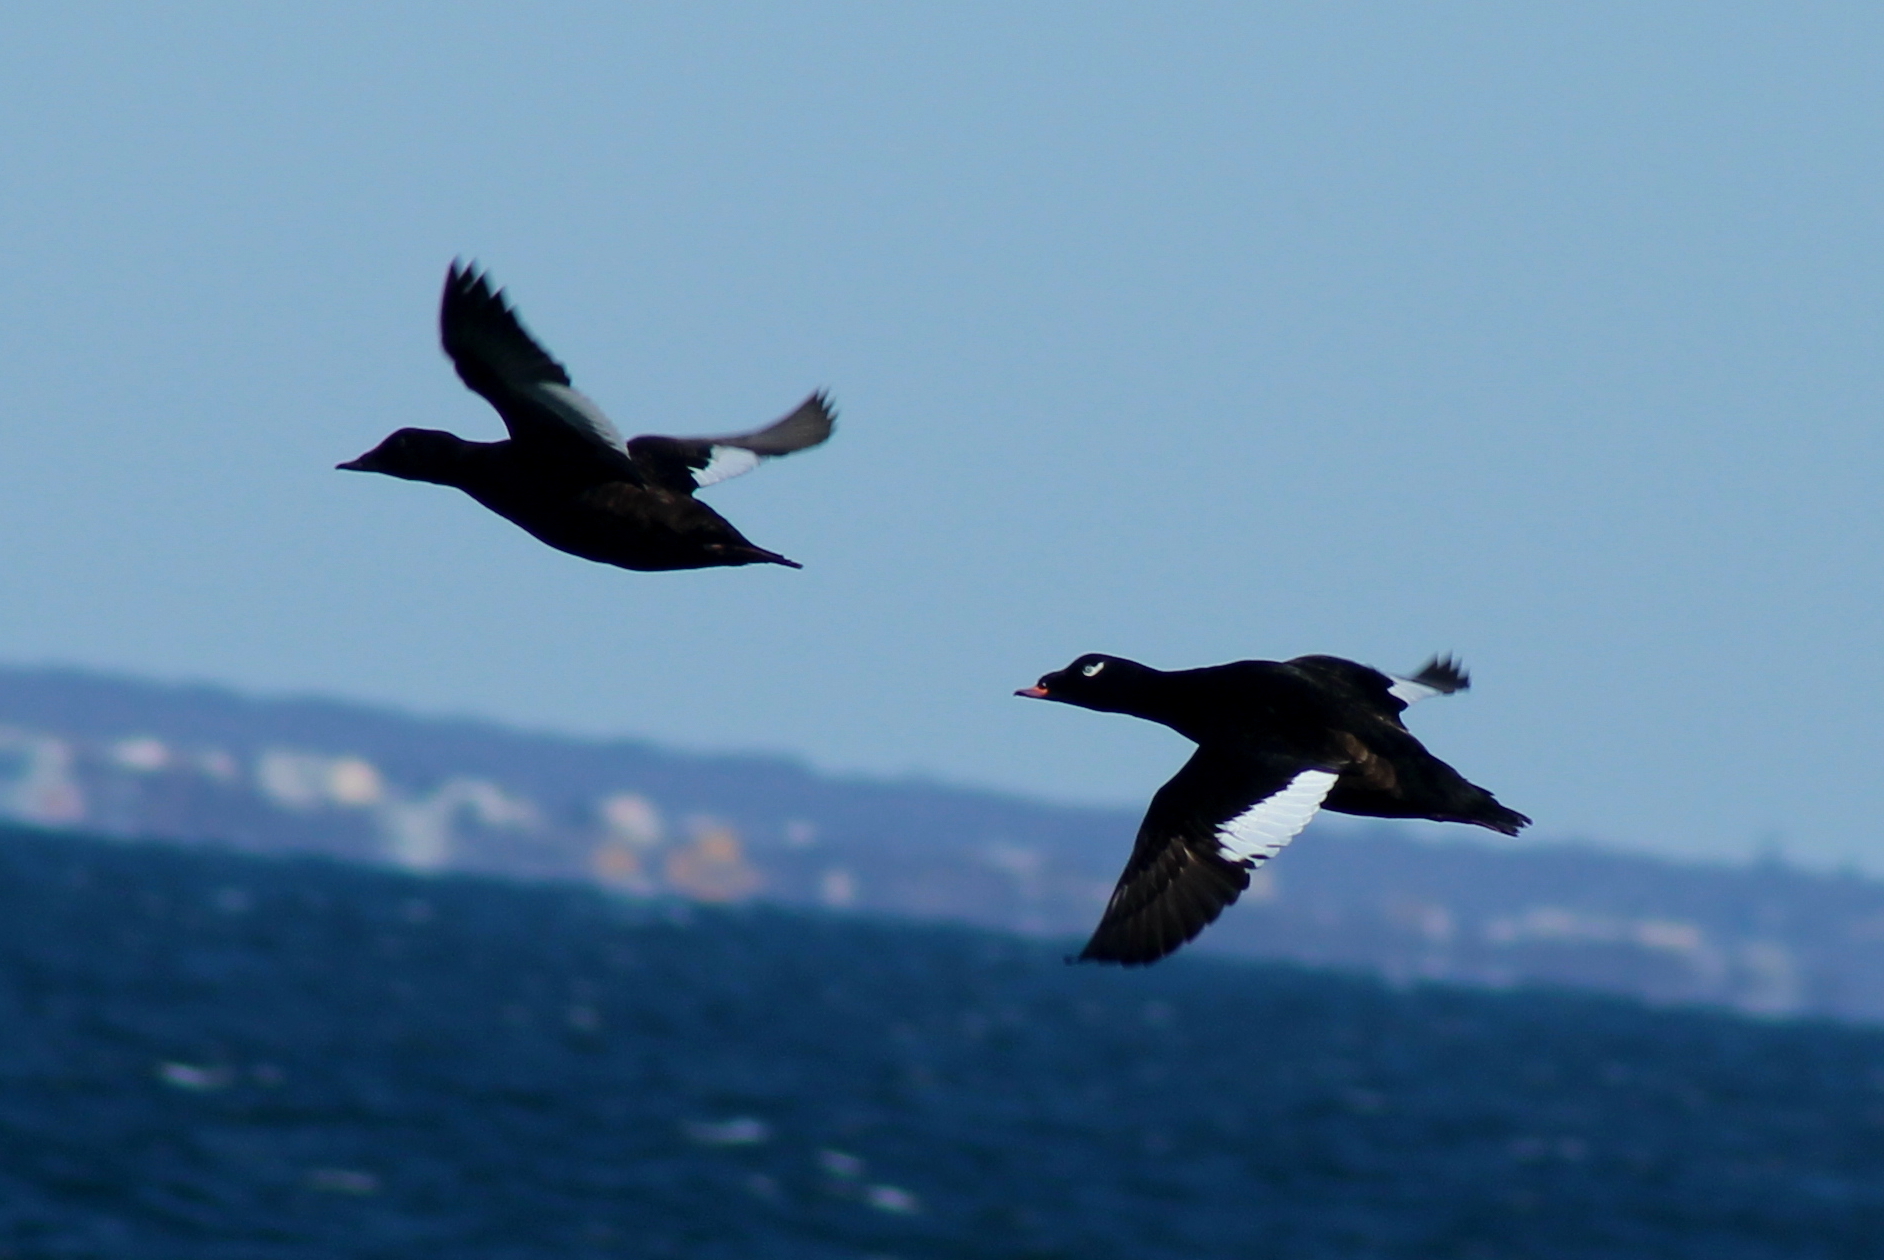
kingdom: Animalia
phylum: Chordata
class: Aves
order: Anseriformes
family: Anatidae
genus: Melanitta
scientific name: Melanitta deglandi
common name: White-winged scoter
